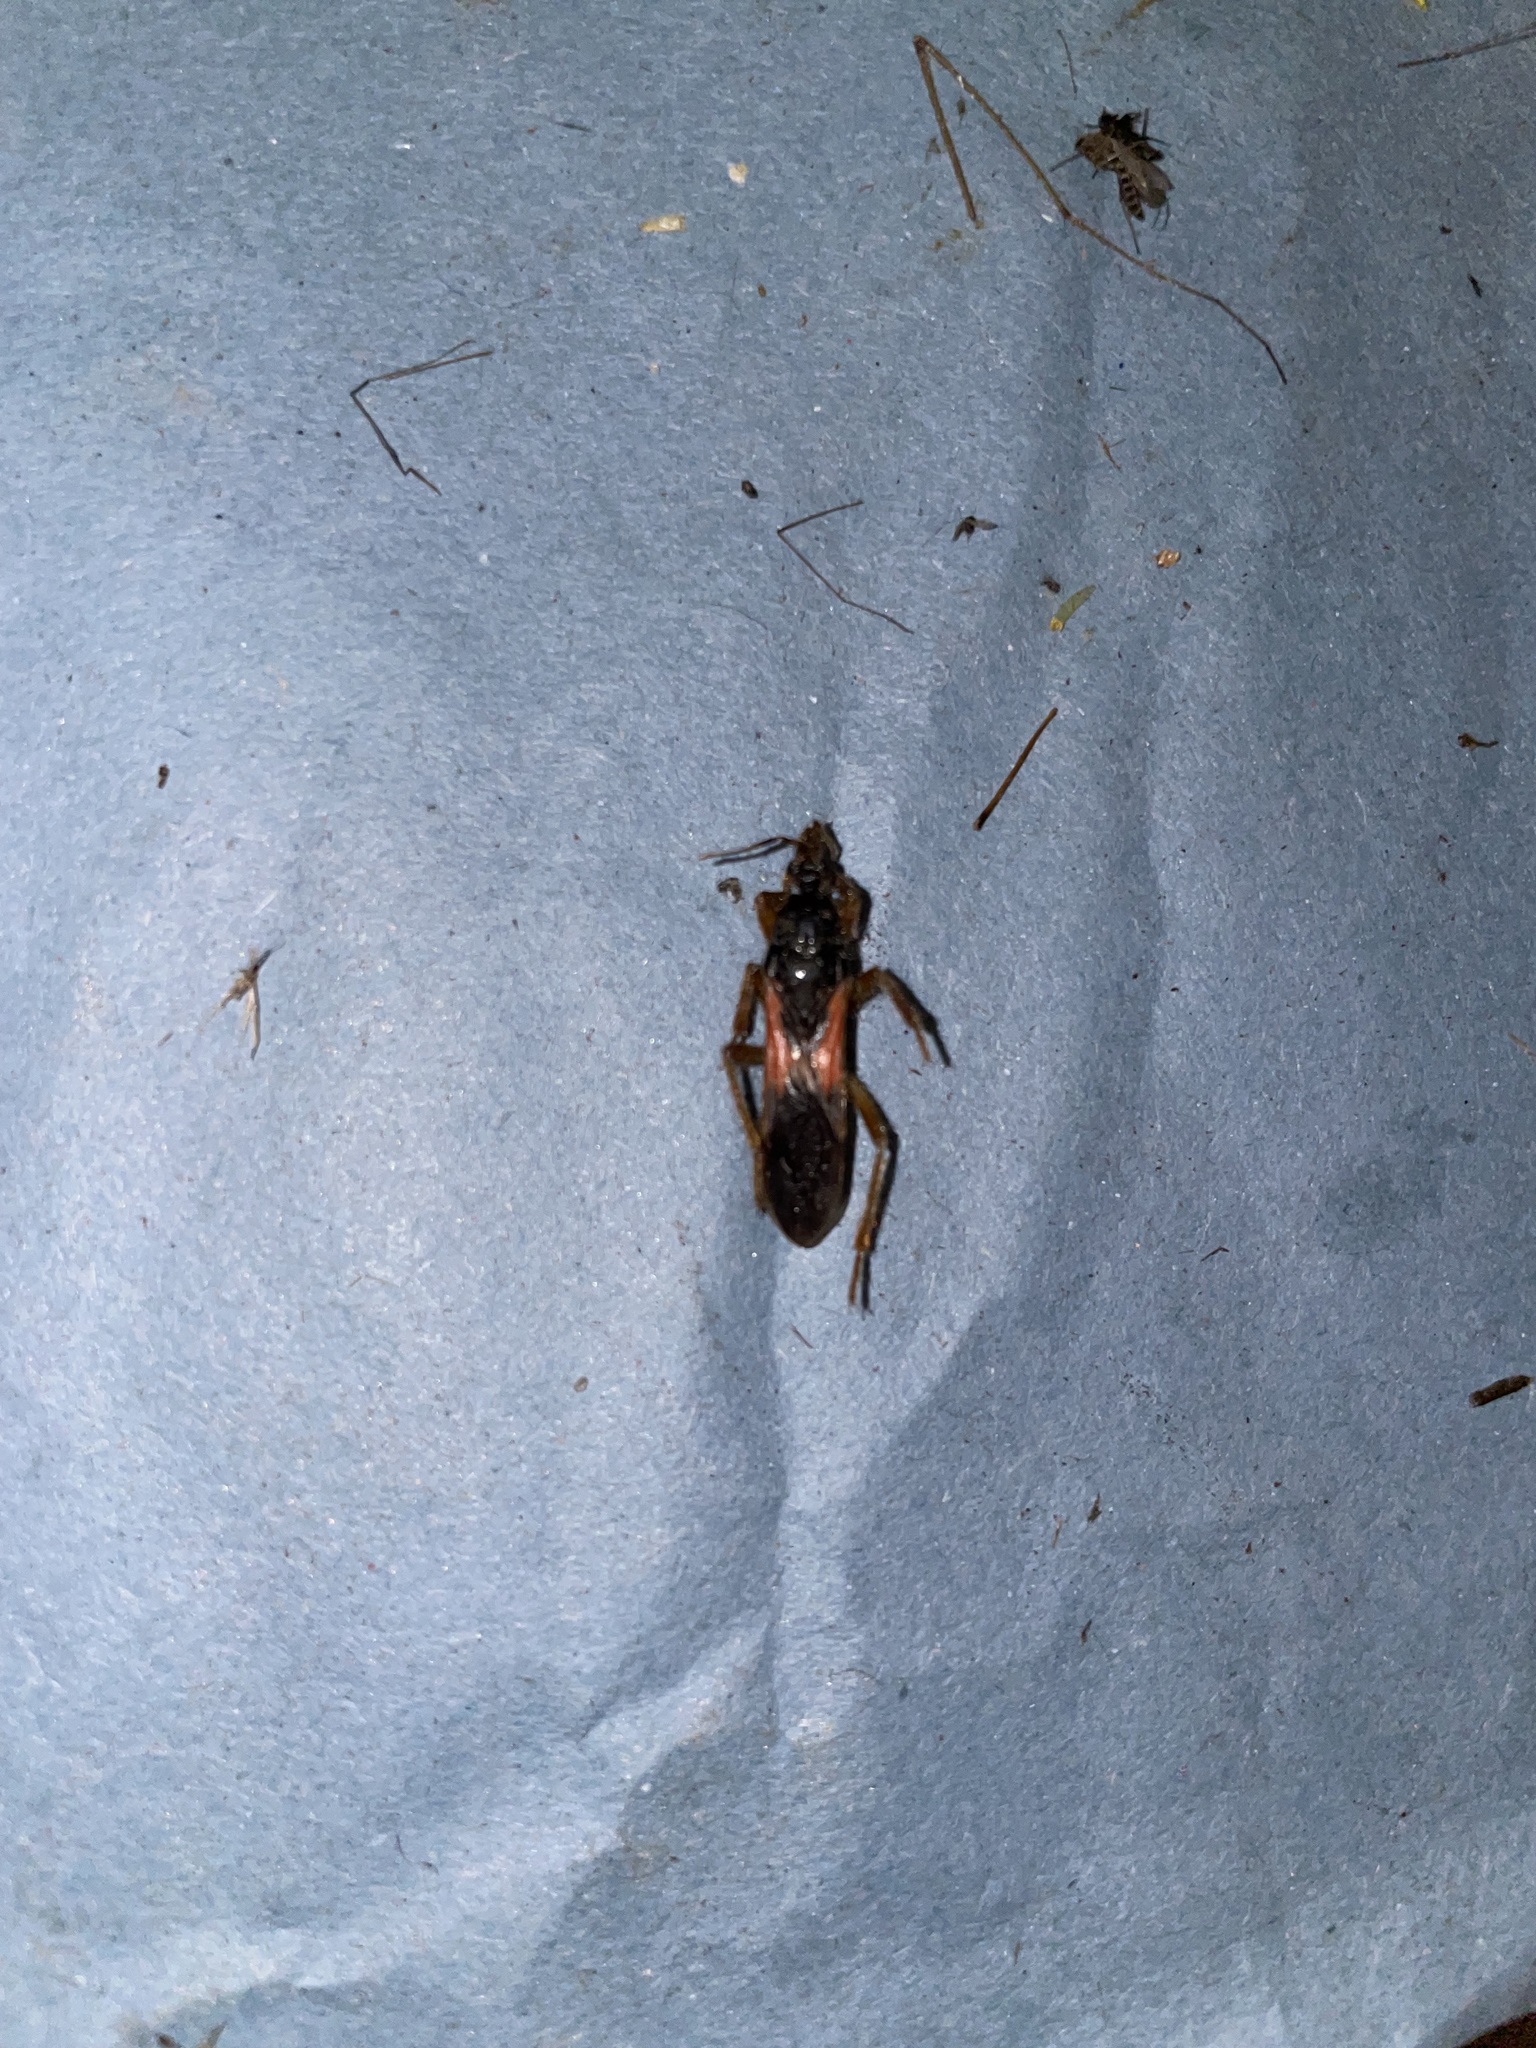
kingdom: Animalia
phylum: Arthropoda
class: Insecta
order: Hemiptera
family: Reduviidae
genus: Sirthenea
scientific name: Sirthenea stria
